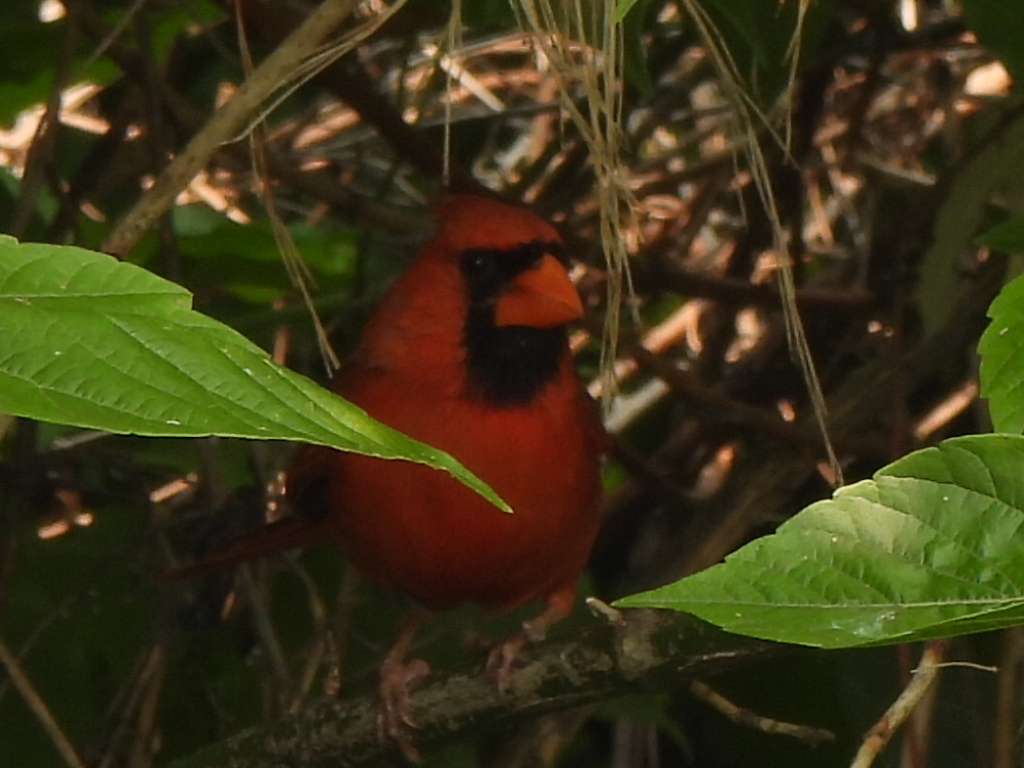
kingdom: Animalia
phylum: Chordata
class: Aves
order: Passeriformes
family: Cardinalidae
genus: Cardinalis
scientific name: Cardinalis cardinalis
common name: Northern cardinal
